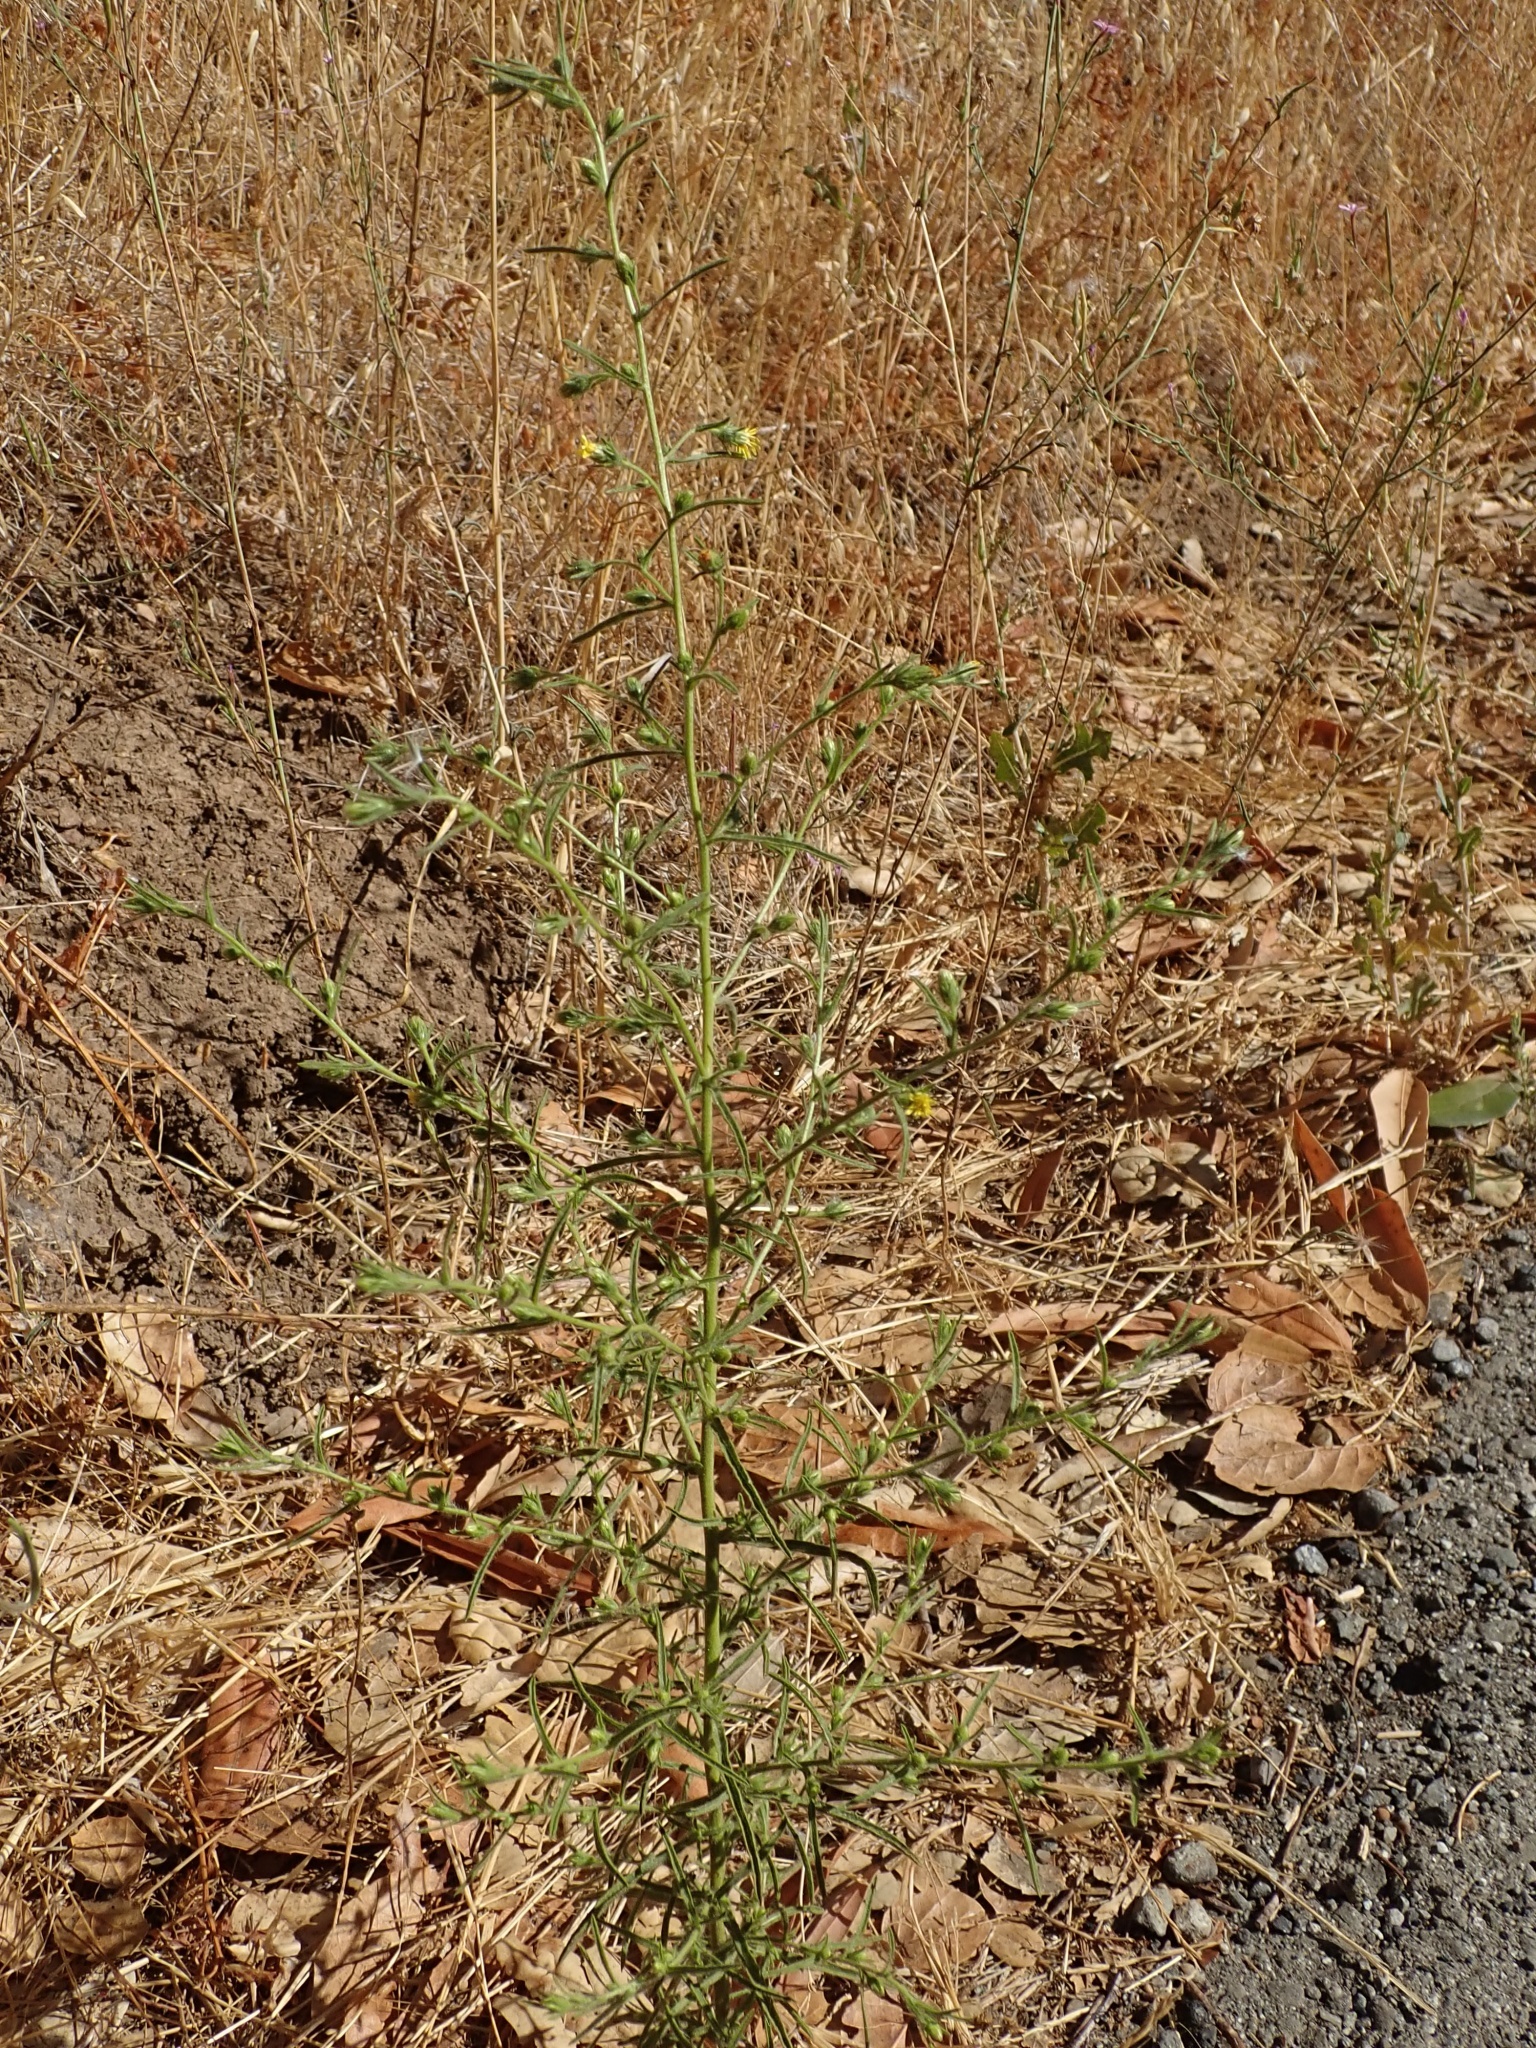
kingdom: Plantae
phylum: Tracheophyta
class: Magnoliopsida
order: Asterales
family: Asteraceae
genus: Dittrichia
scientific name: Dittrichia graveolens
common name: Stinking fleabane
